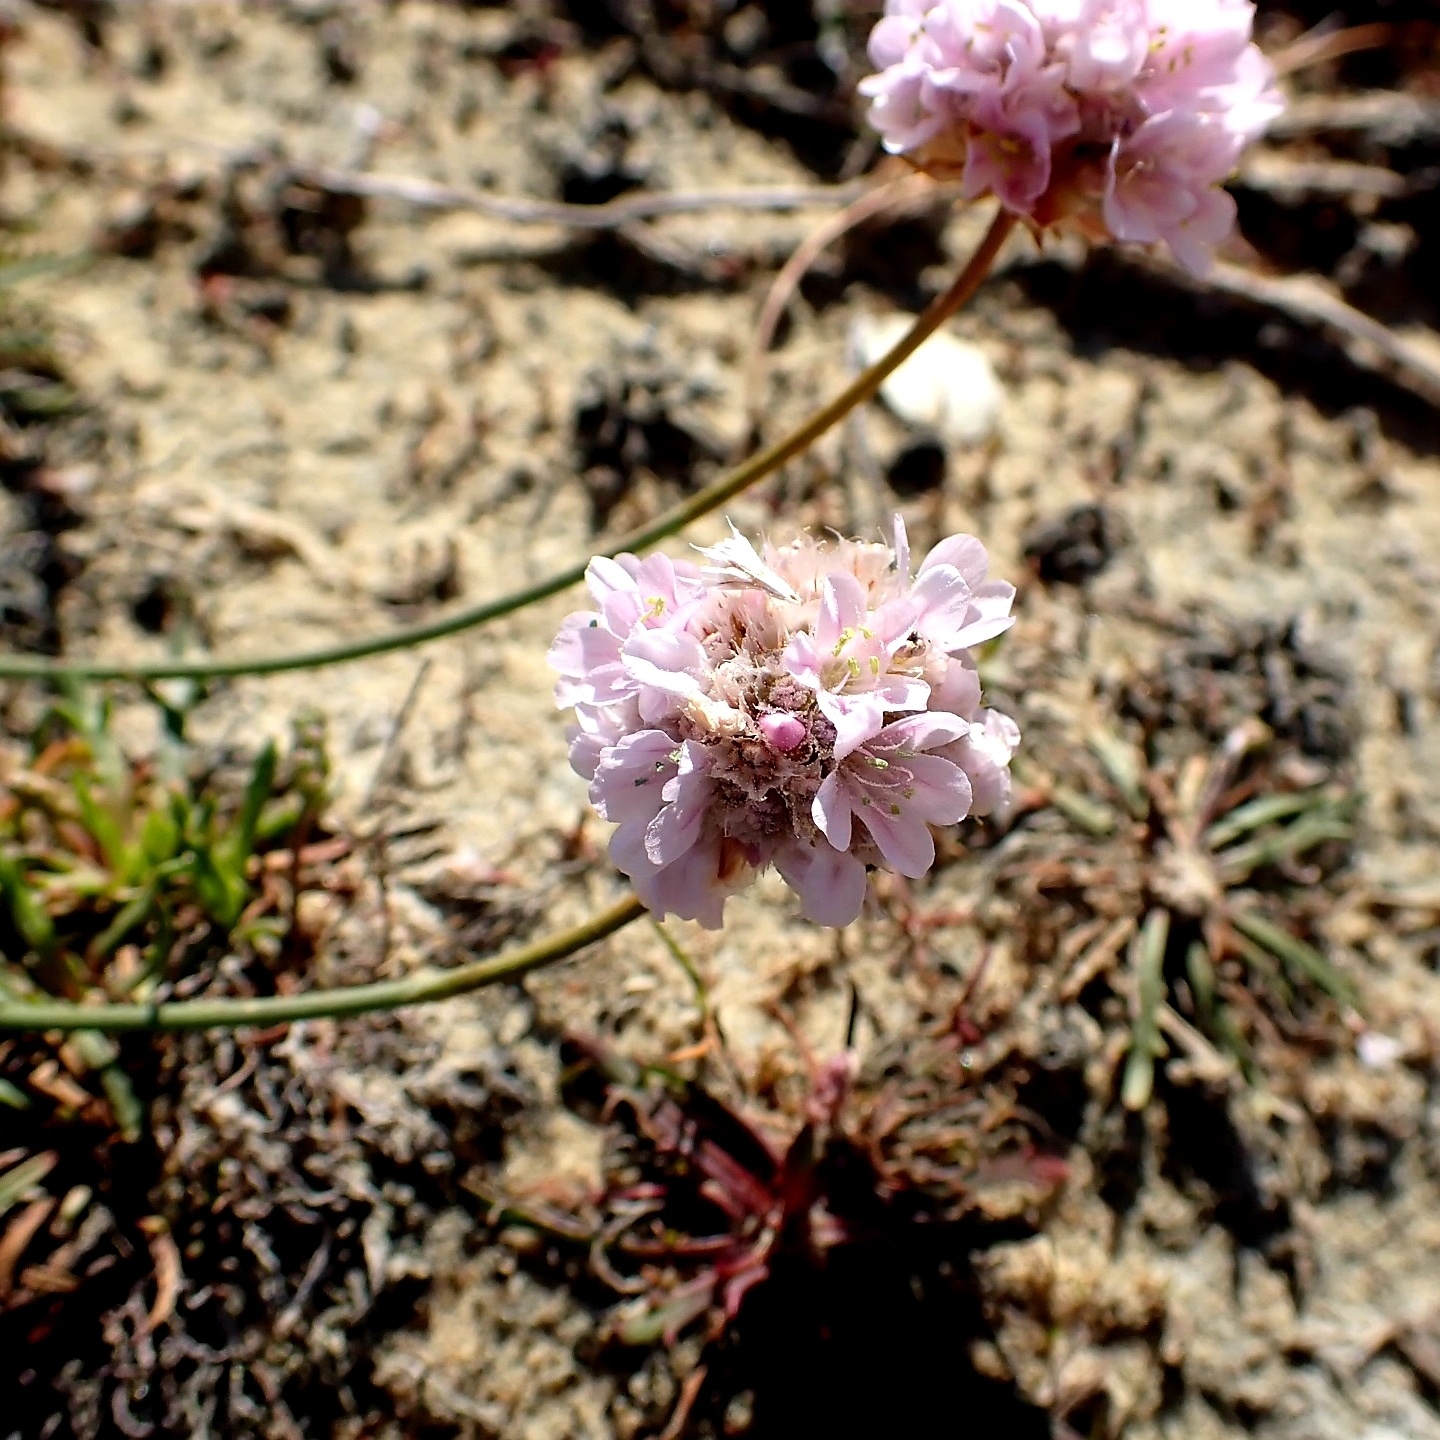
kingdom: Plantae
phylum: Tracheophyta
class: Magnoliopsida
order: Caryophyllales
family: Plumbaginaceae
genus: Armeria
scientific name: Armeria maritima
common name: Thrift
